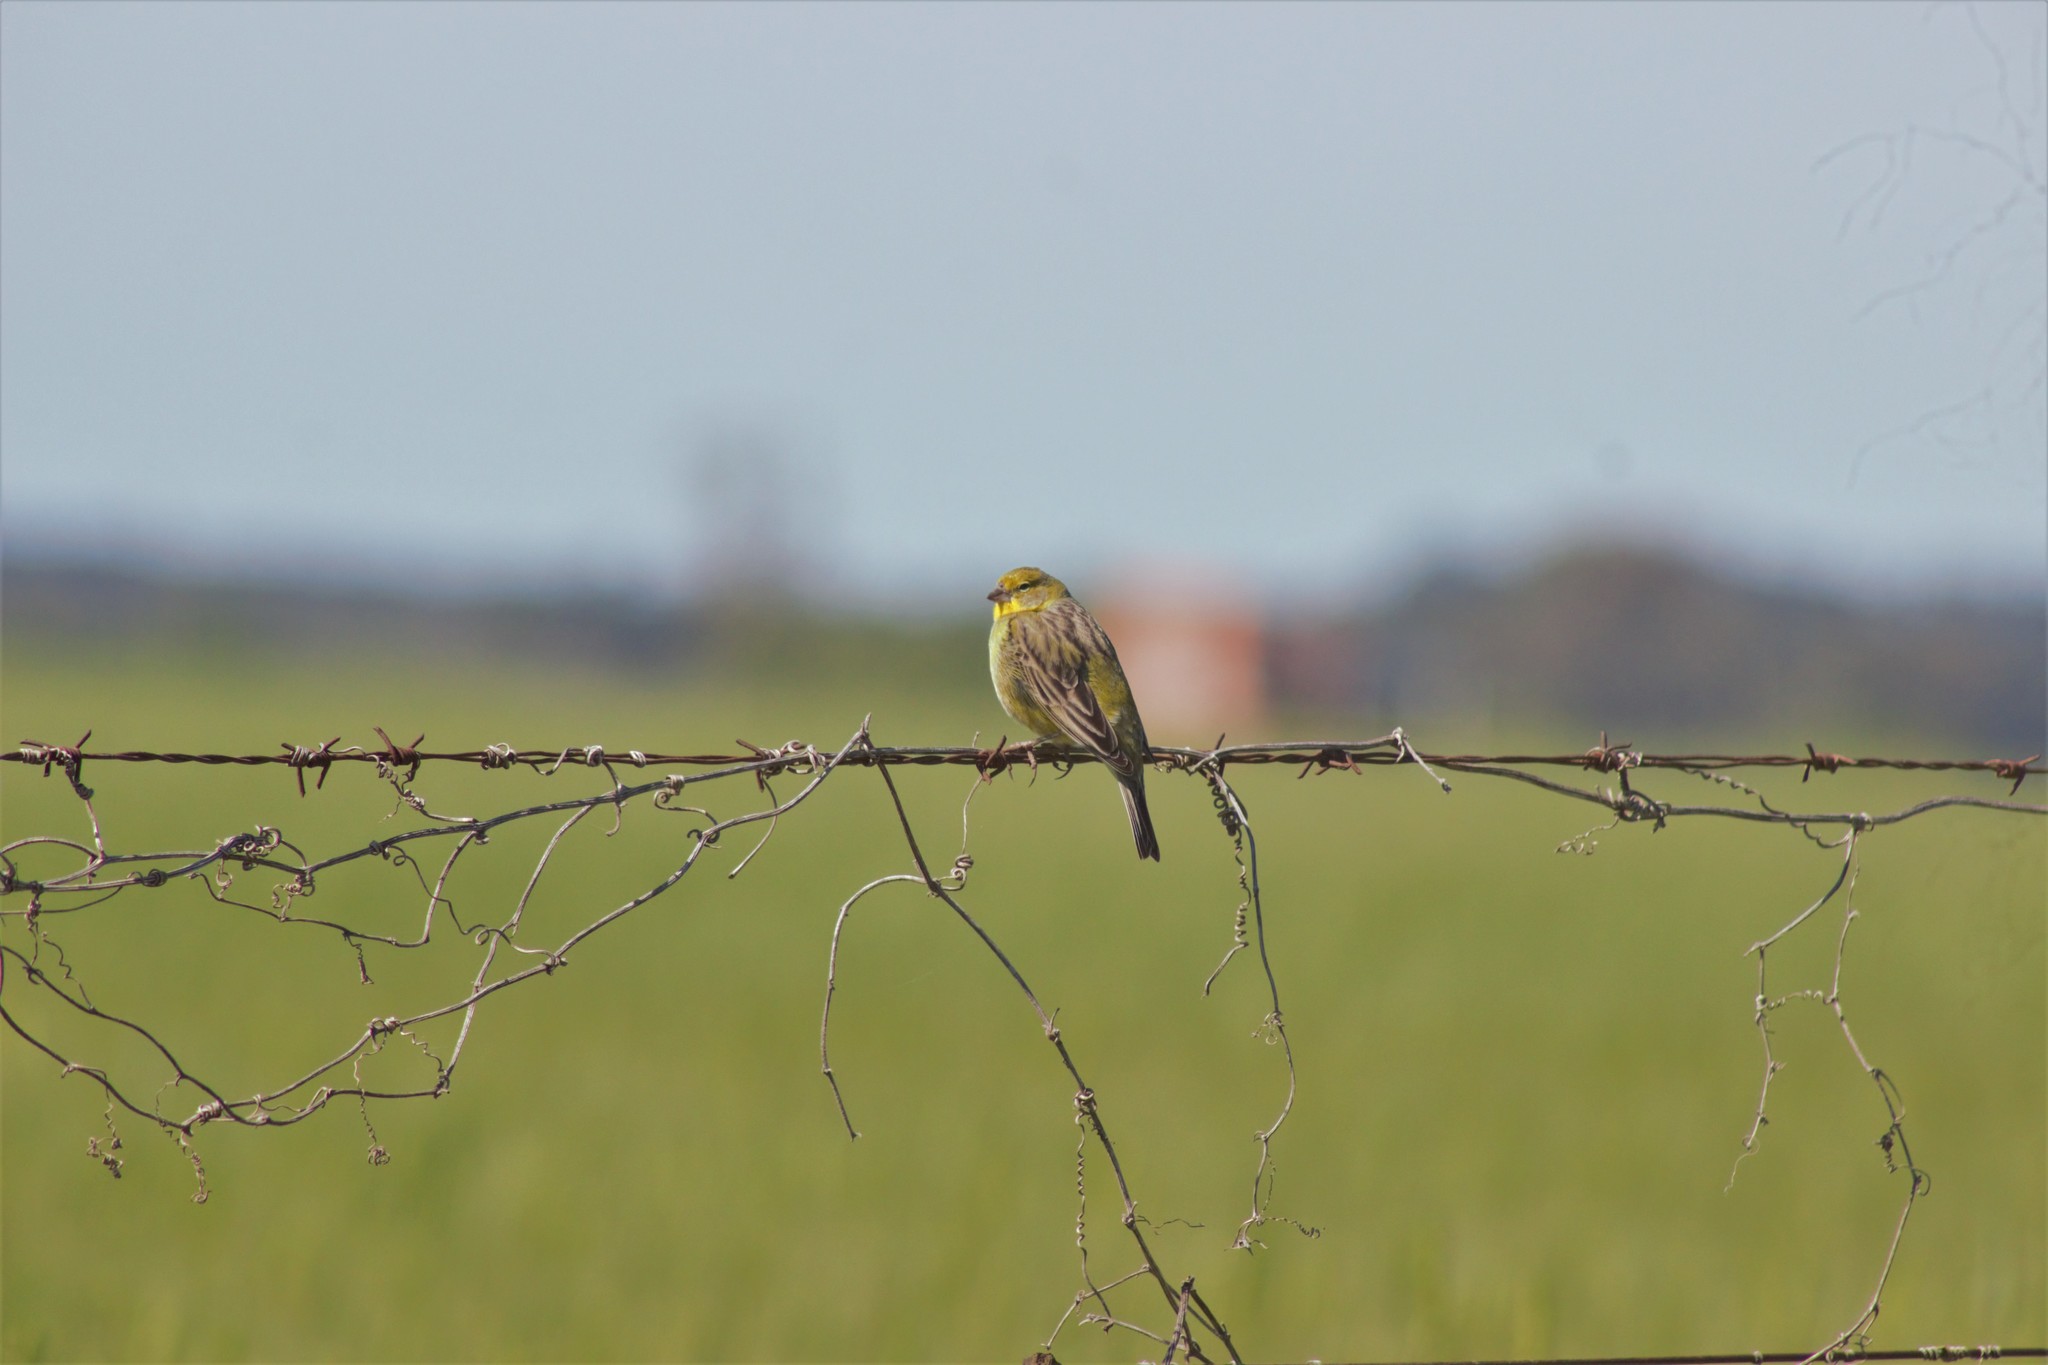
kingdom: Animalia
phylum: Chordata
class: Aves
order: Passeriformes
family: Thraupidae
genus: Sicalis
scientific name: Sicalis luteola
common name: Grassland yellow-finch
